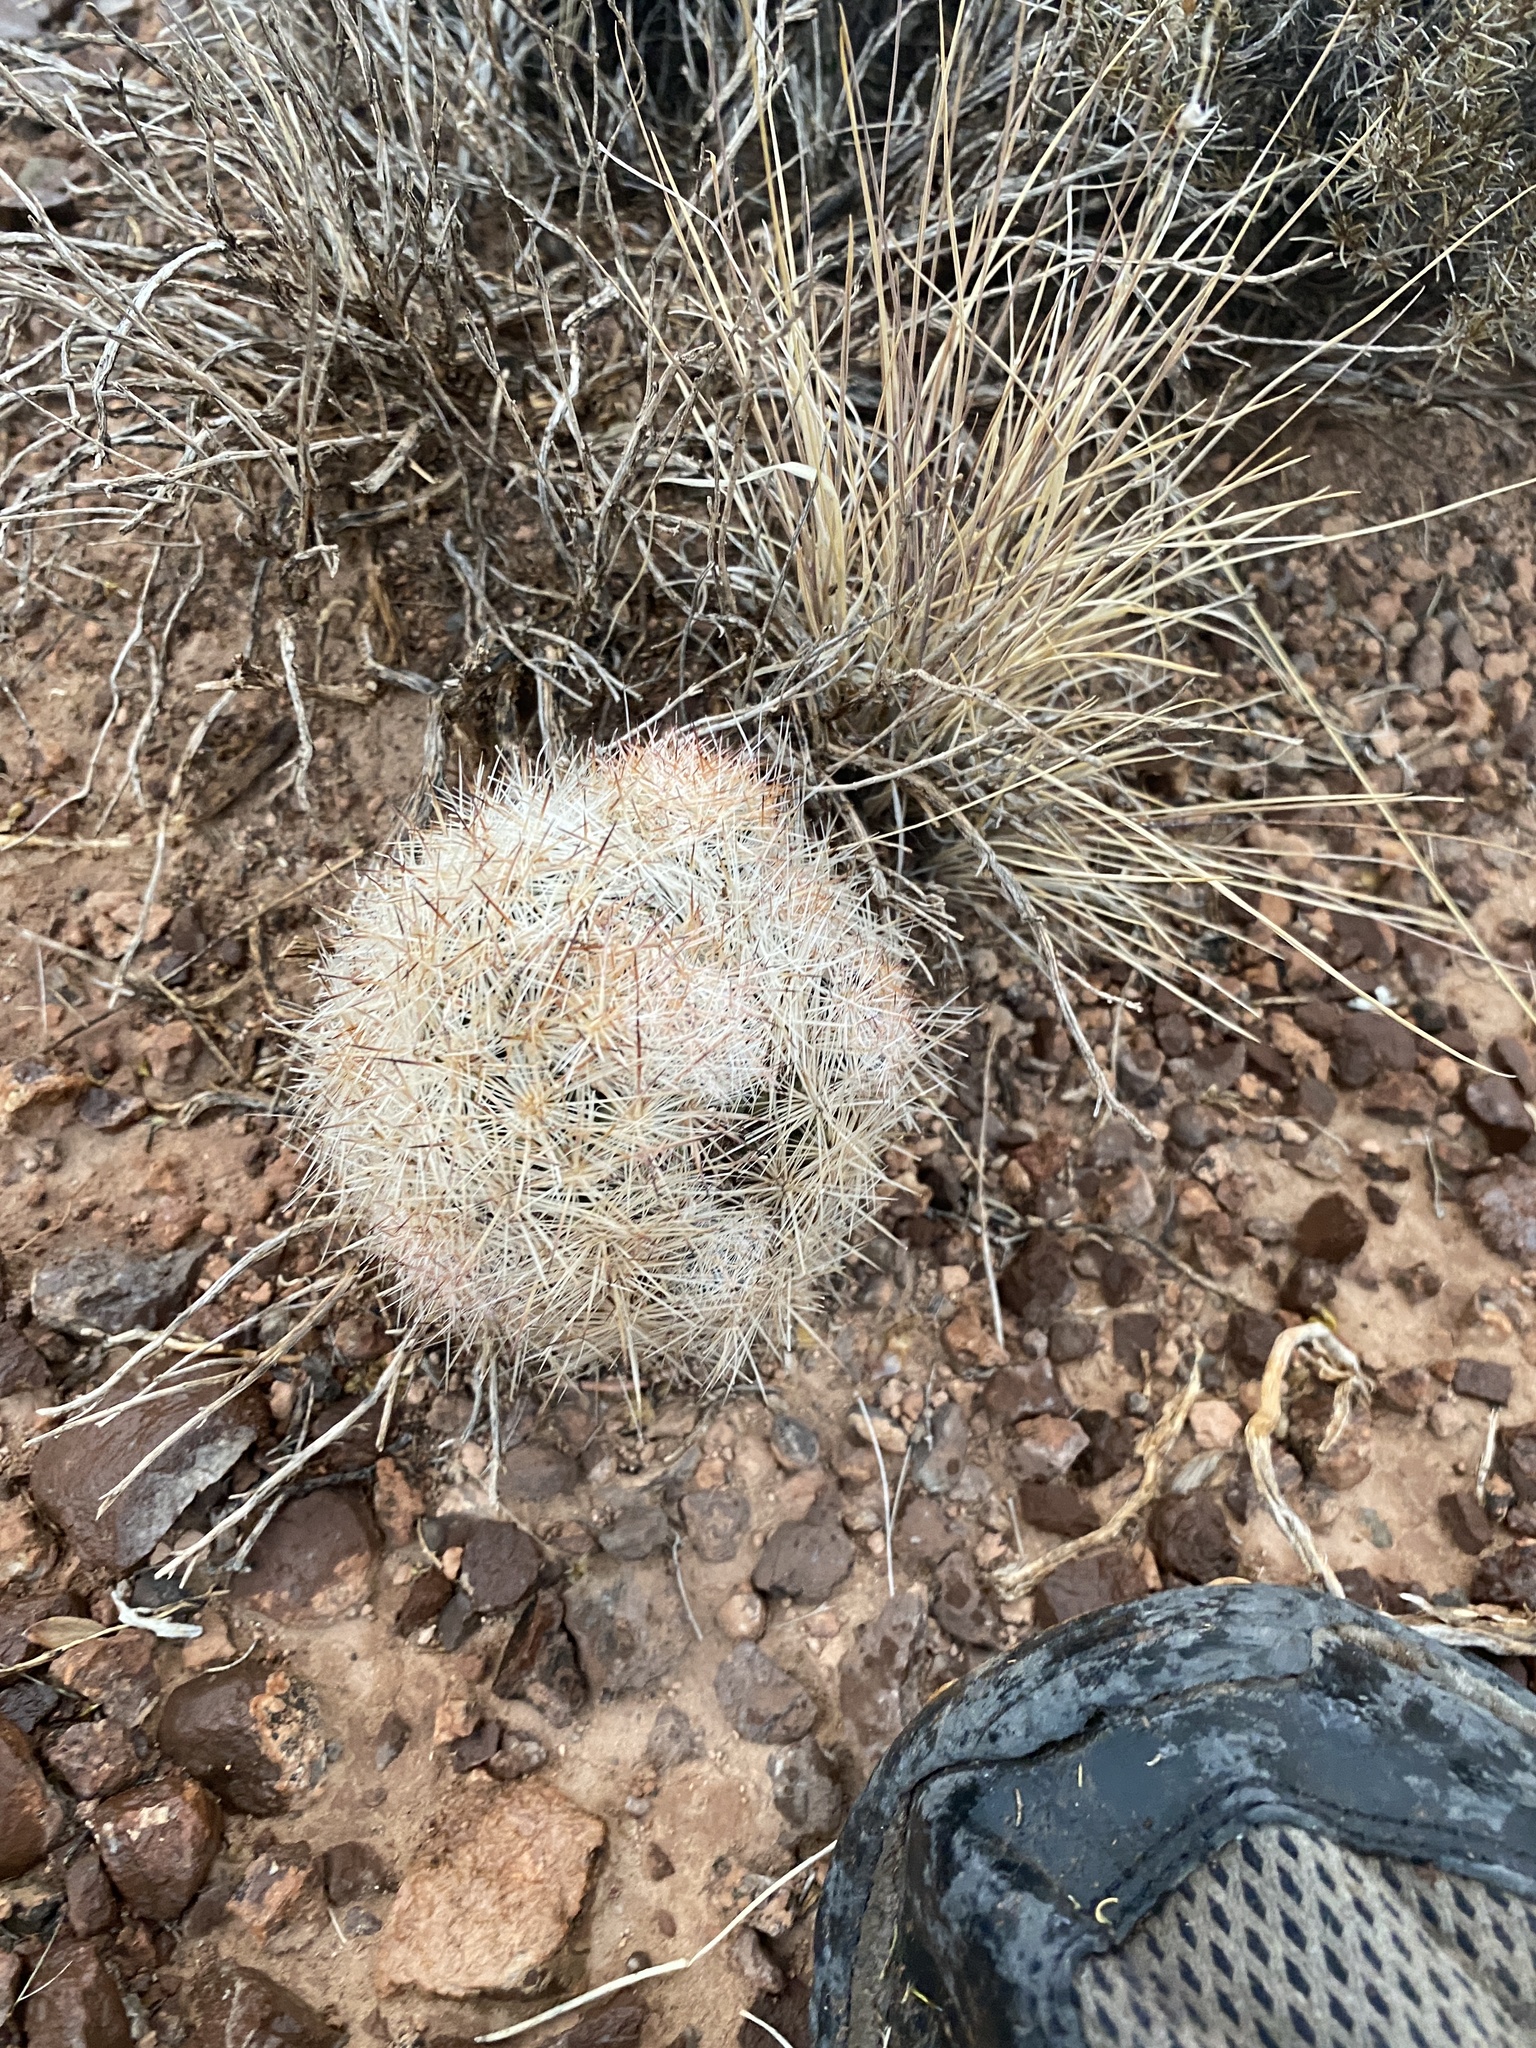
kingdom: Plantae
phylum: Tracheophyta
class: Magnoliopsida
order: Caryophyllales
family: Cactaceae
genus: Pelecyphora
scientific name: Pelecyphora vivipara
